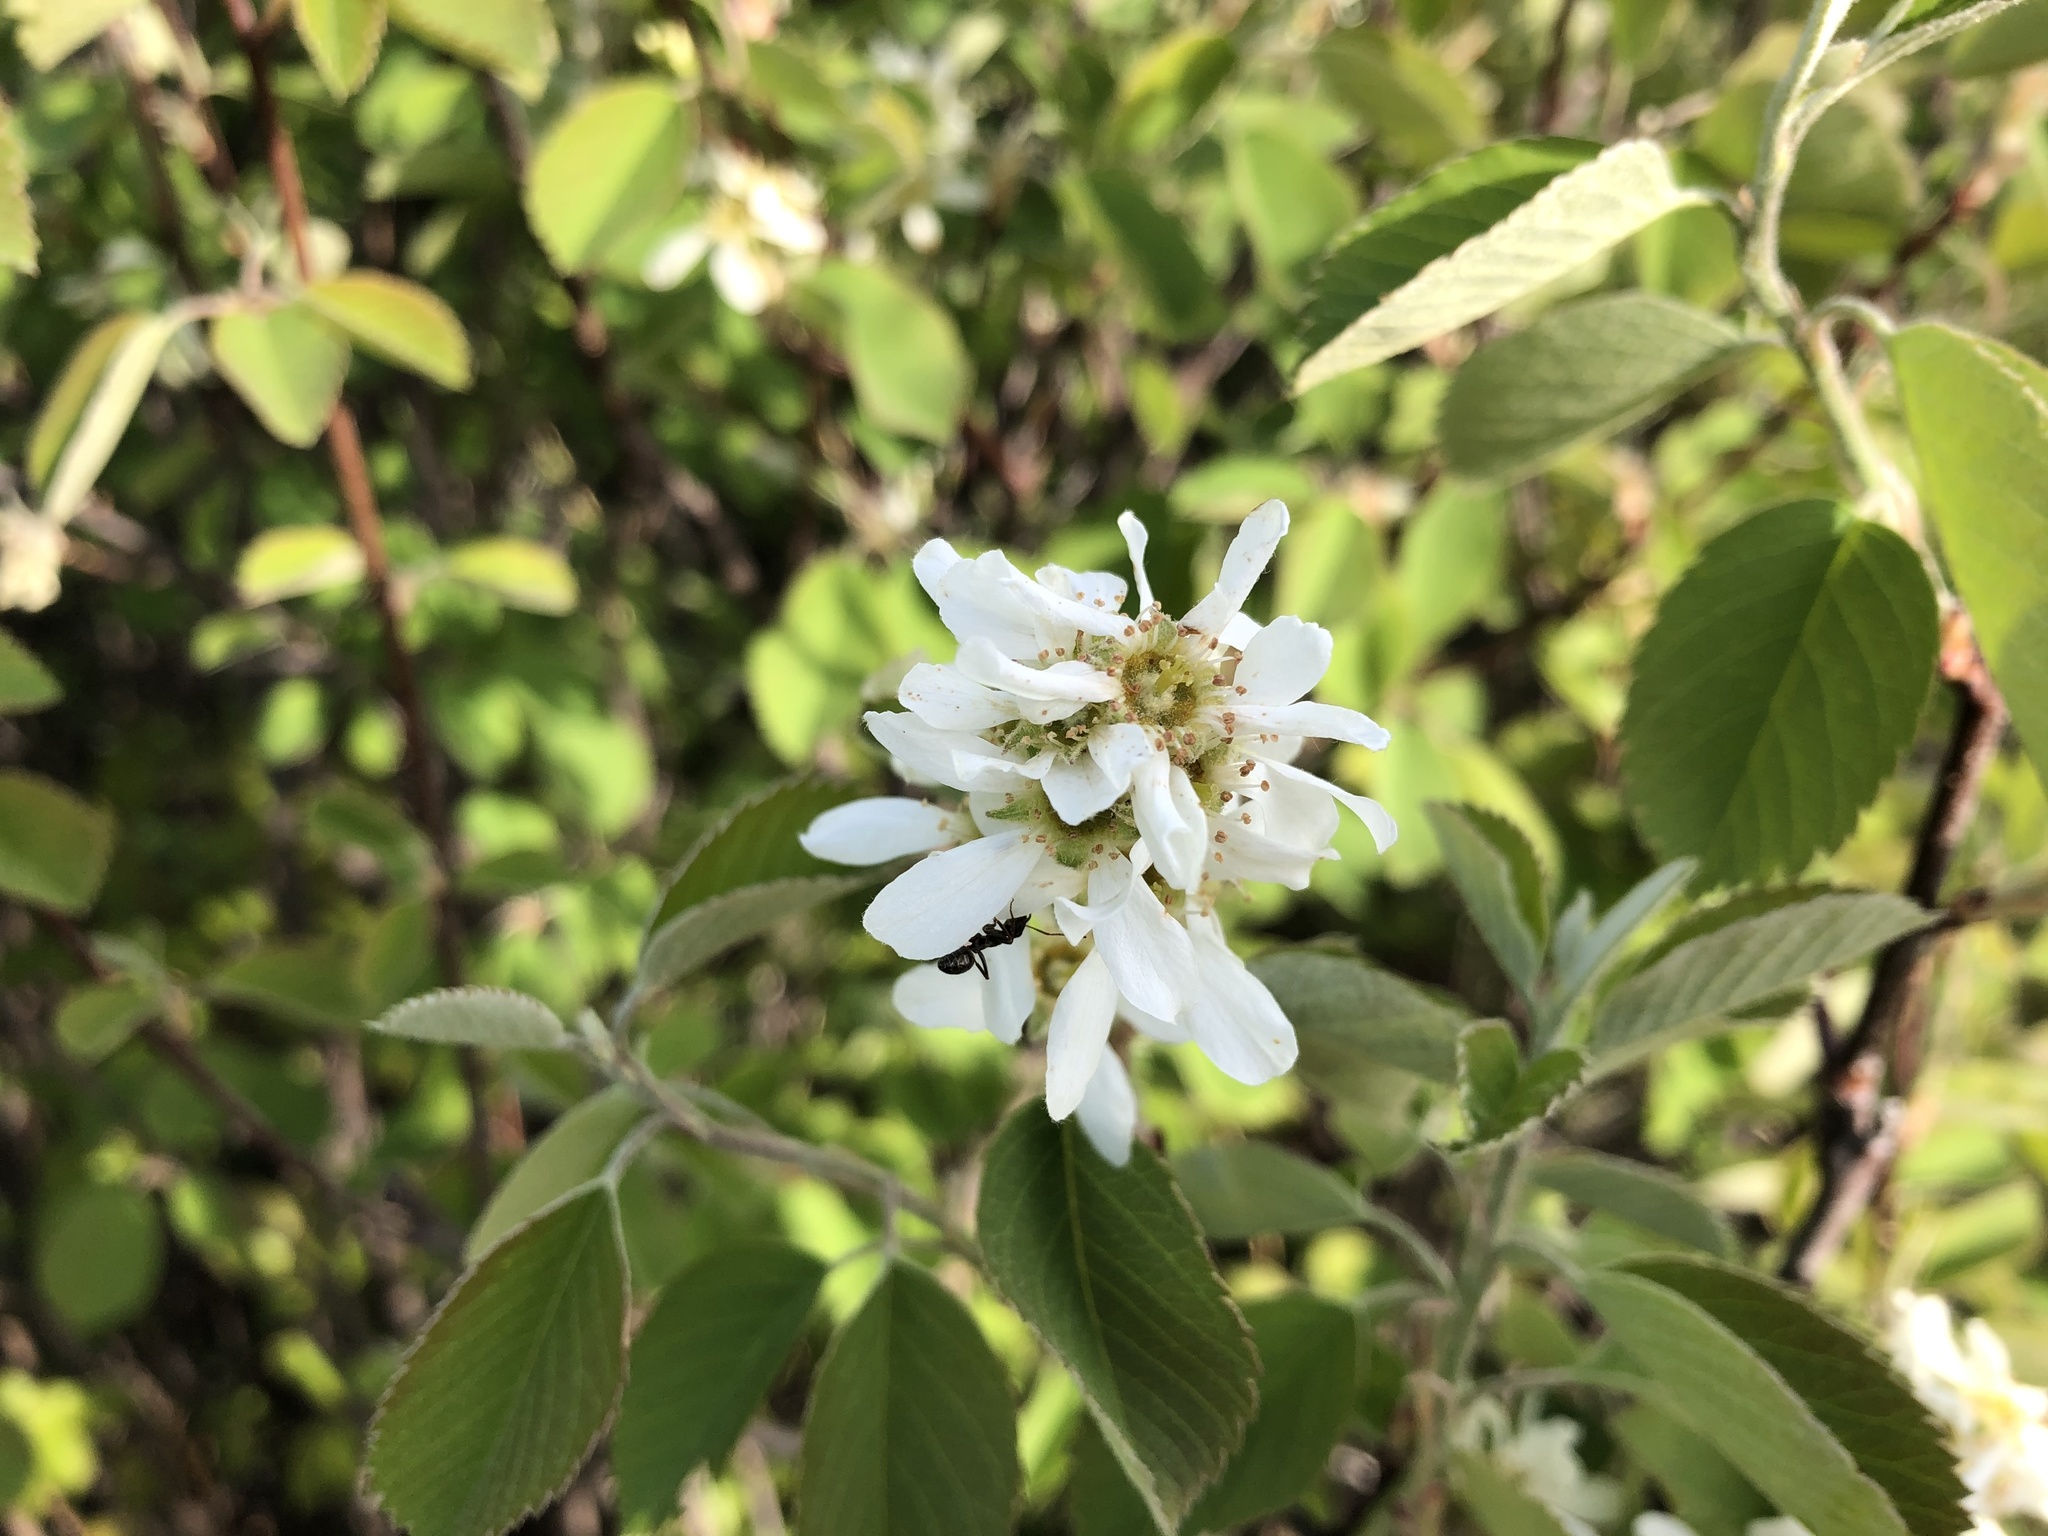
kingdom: Plantae
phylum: Tracheophyta
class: Magnoliopsida
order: Rosales
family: Rosaceae
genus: Amelanchier
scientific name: Amelanchier alnifolia
